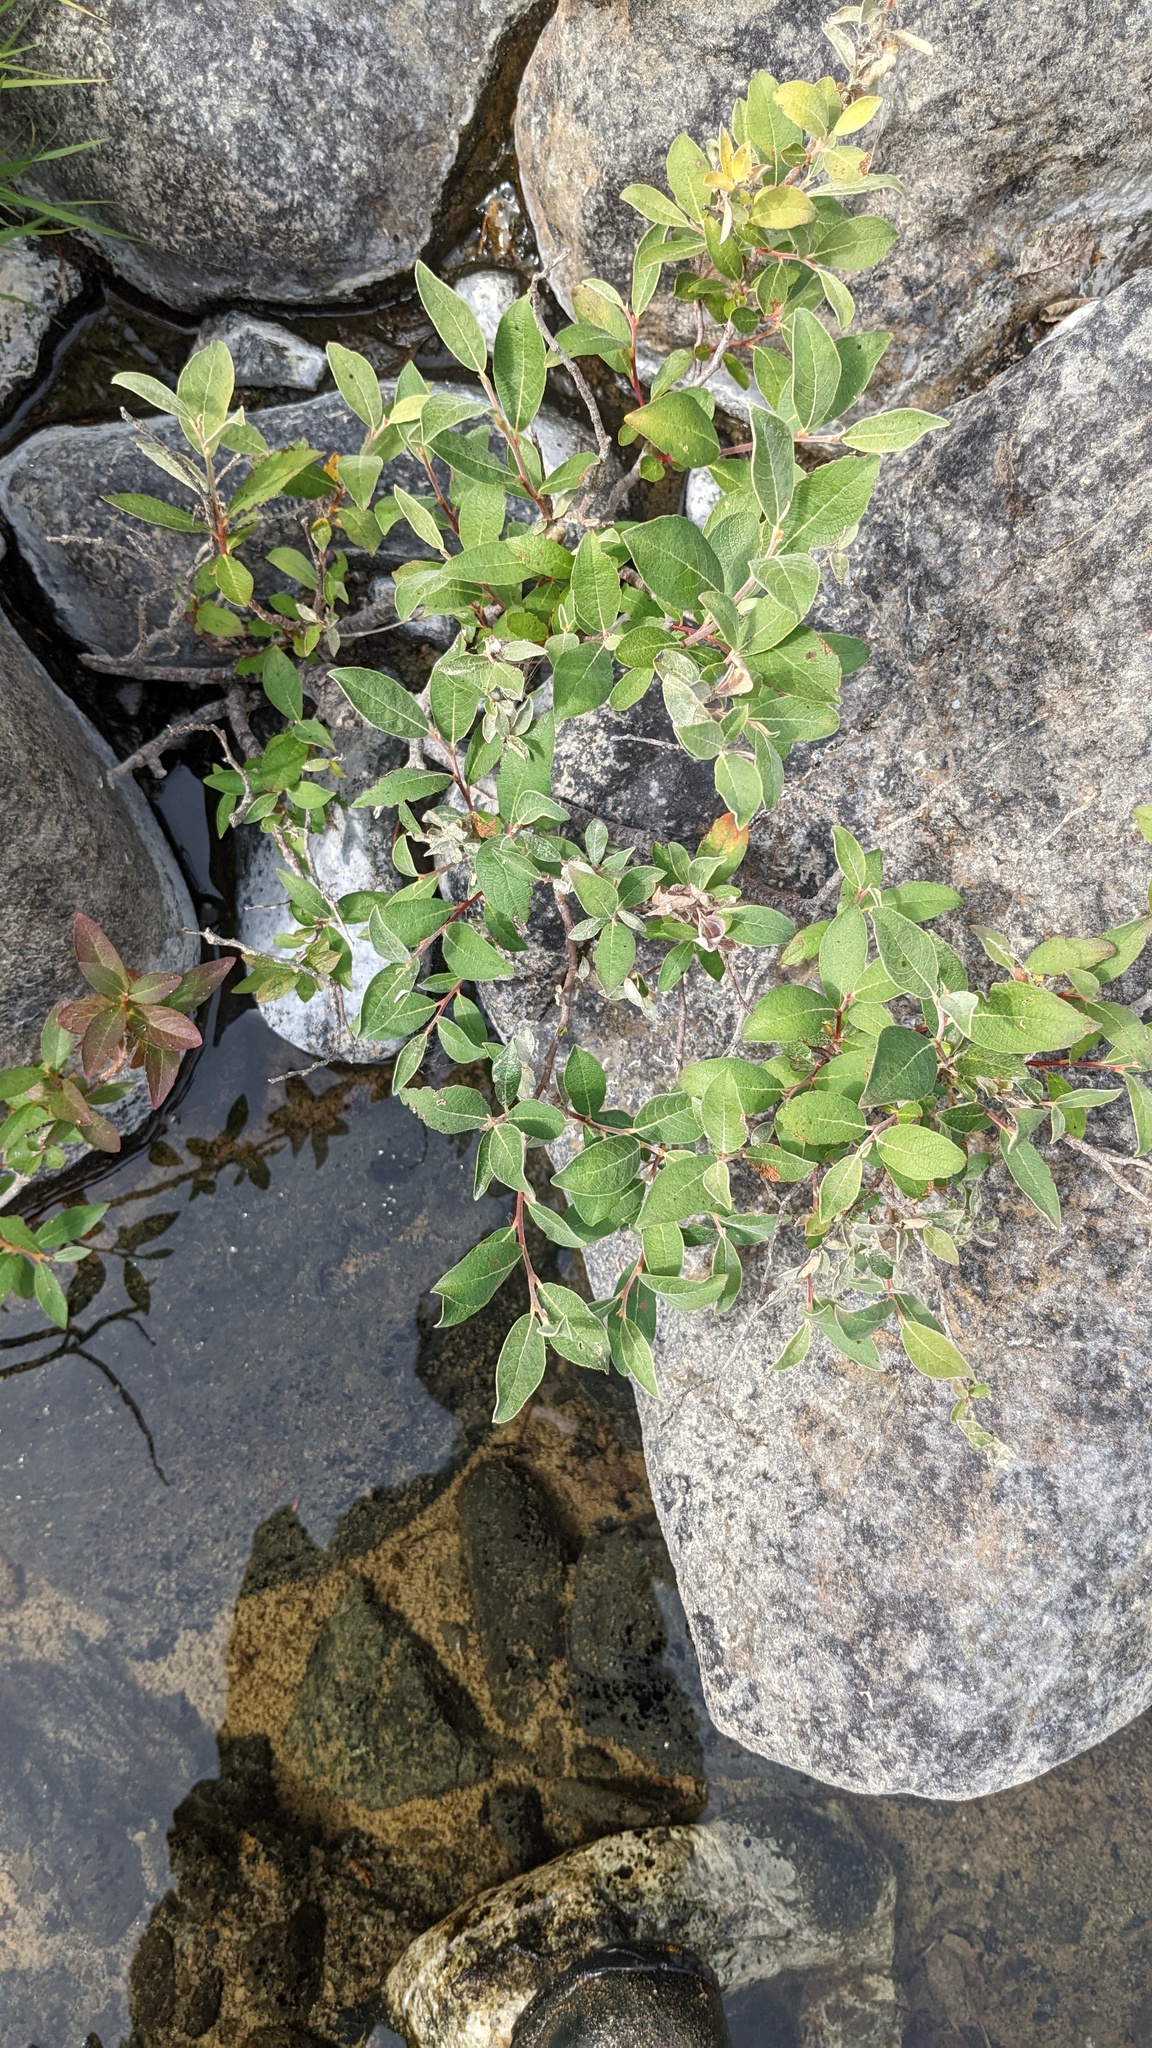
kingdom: Plantae
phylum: Tracheophyta
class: Magnoliopsida
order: Malpighiales
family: Salicaceae
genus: Salix
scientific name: Salix delnortensis
